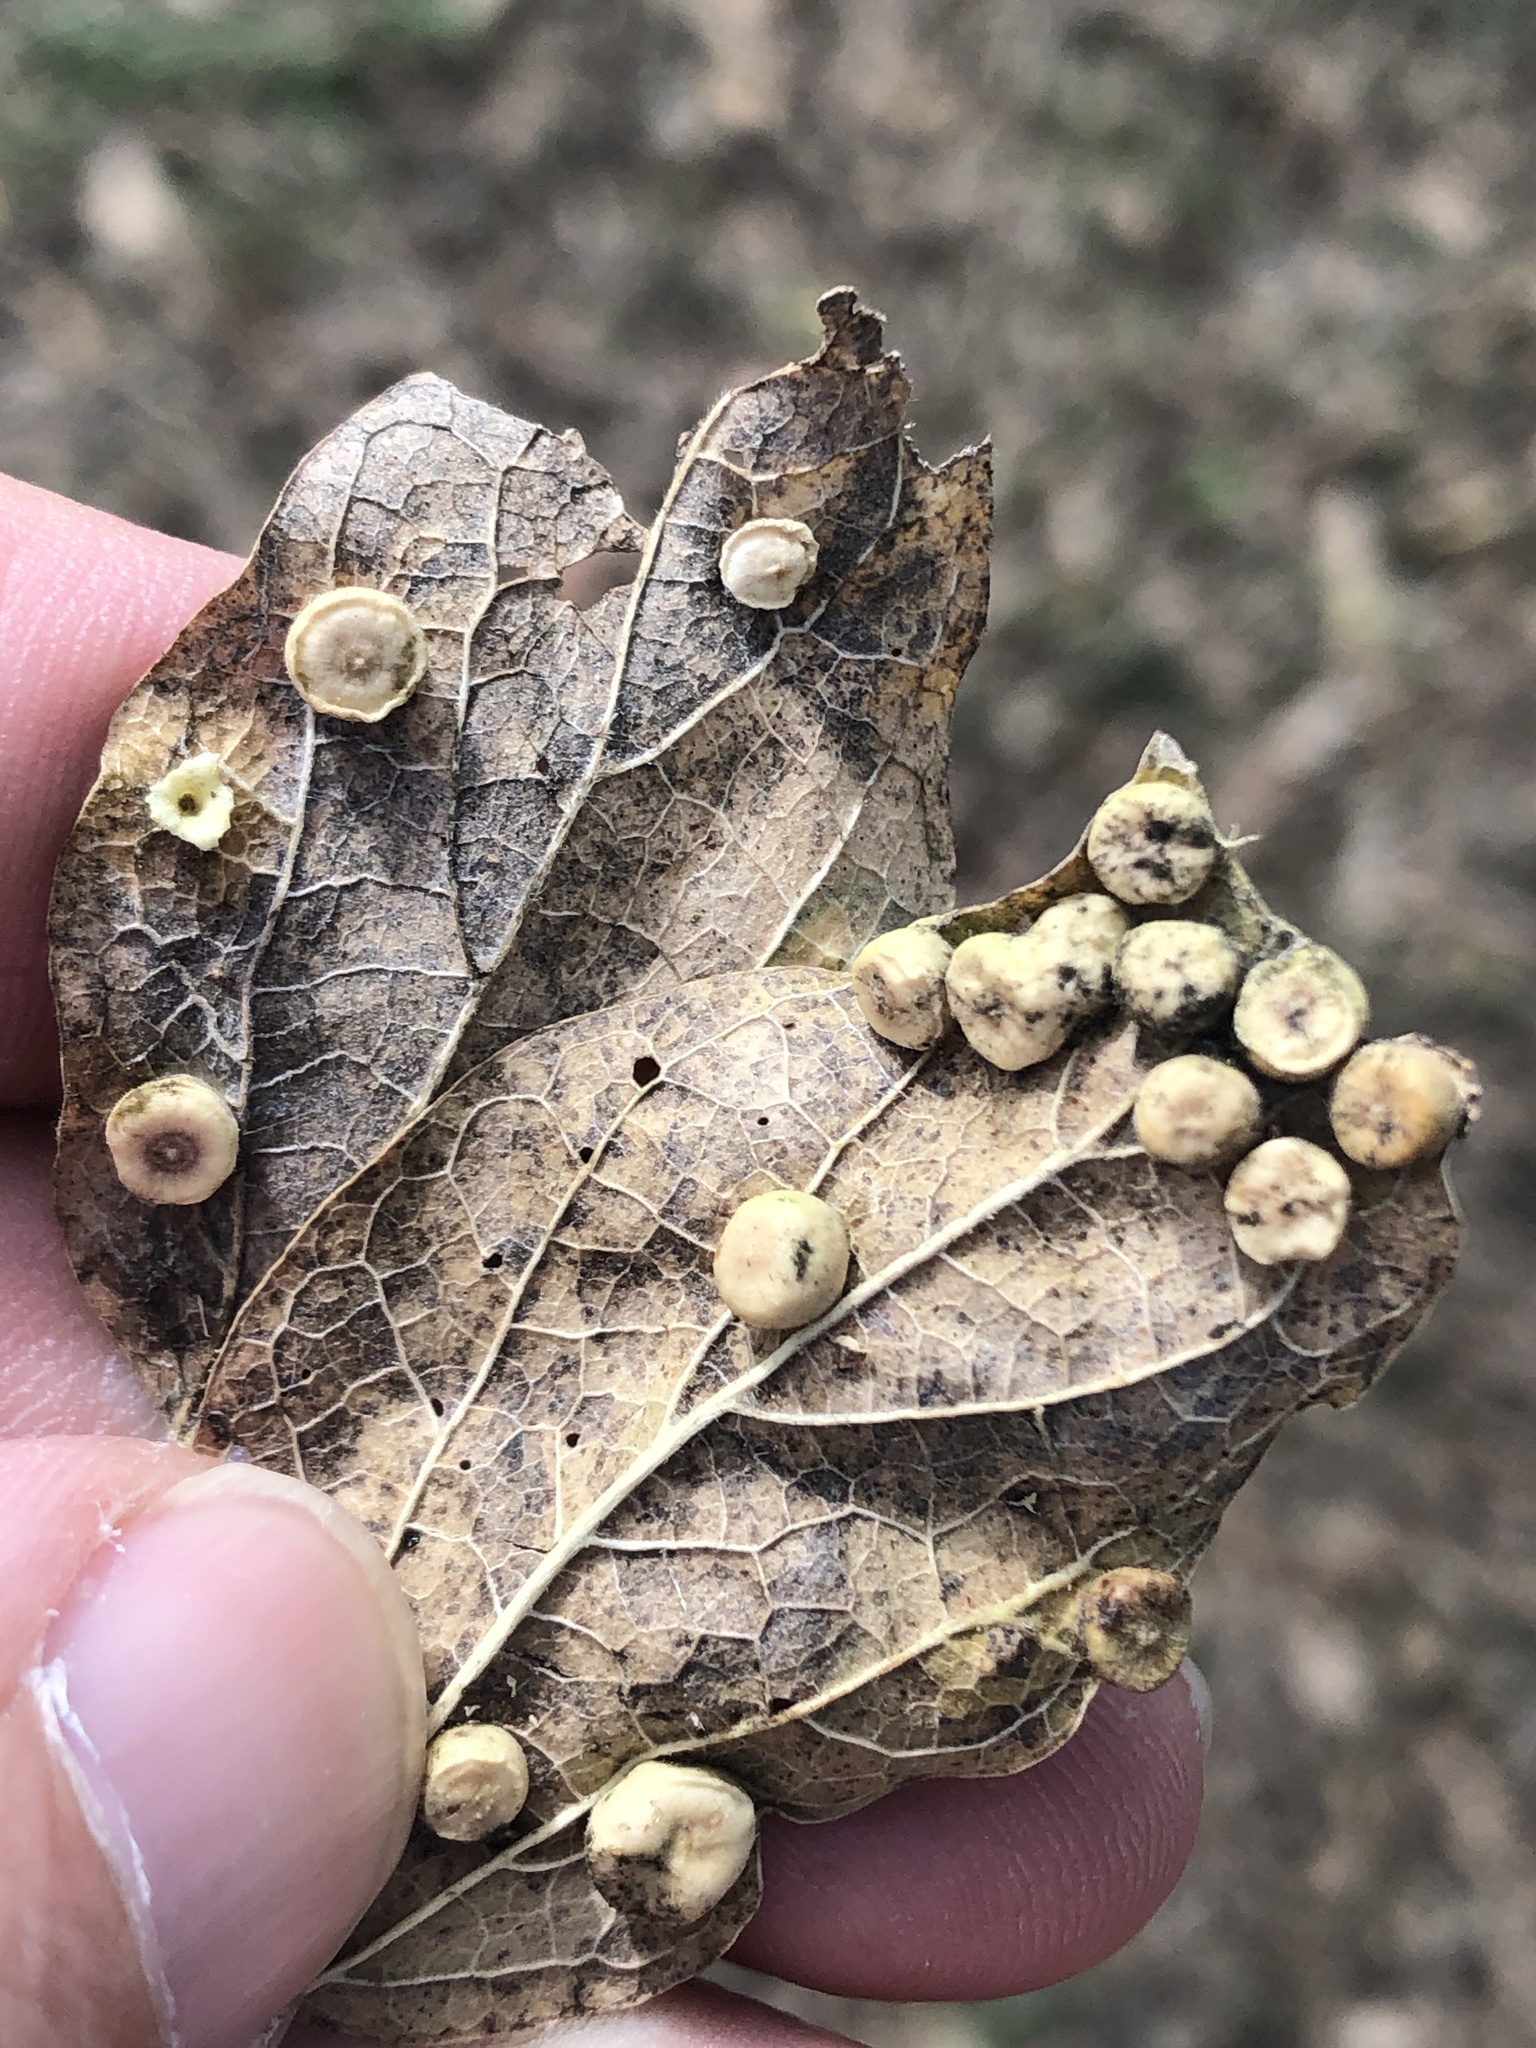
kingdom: Animalia
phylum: Arthropoda
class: Insecta
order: Hemiptera
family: Aphalaridae
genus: Pachypsylla
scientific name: Pachypsylla celtidismamma
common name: Hackberry nipplegall psyllid
